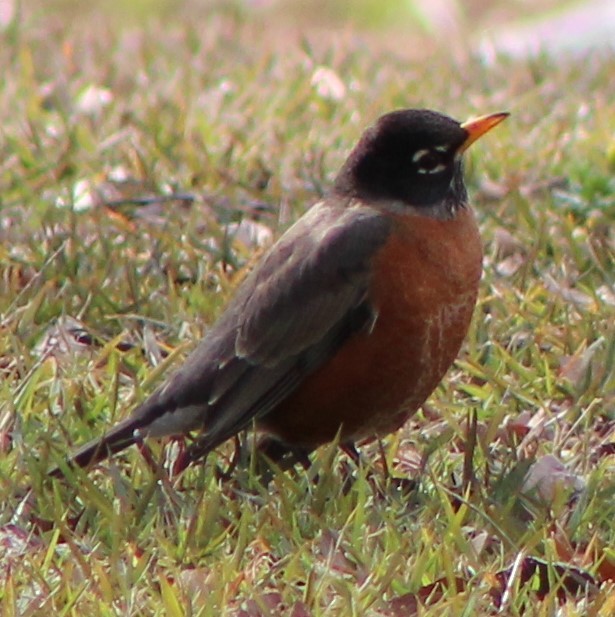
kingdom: Animalia
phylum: Chordata
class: Aves
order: Passeriformes
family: Turdidae
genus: Turdus
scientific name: Turdus migratorius
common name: American robin
